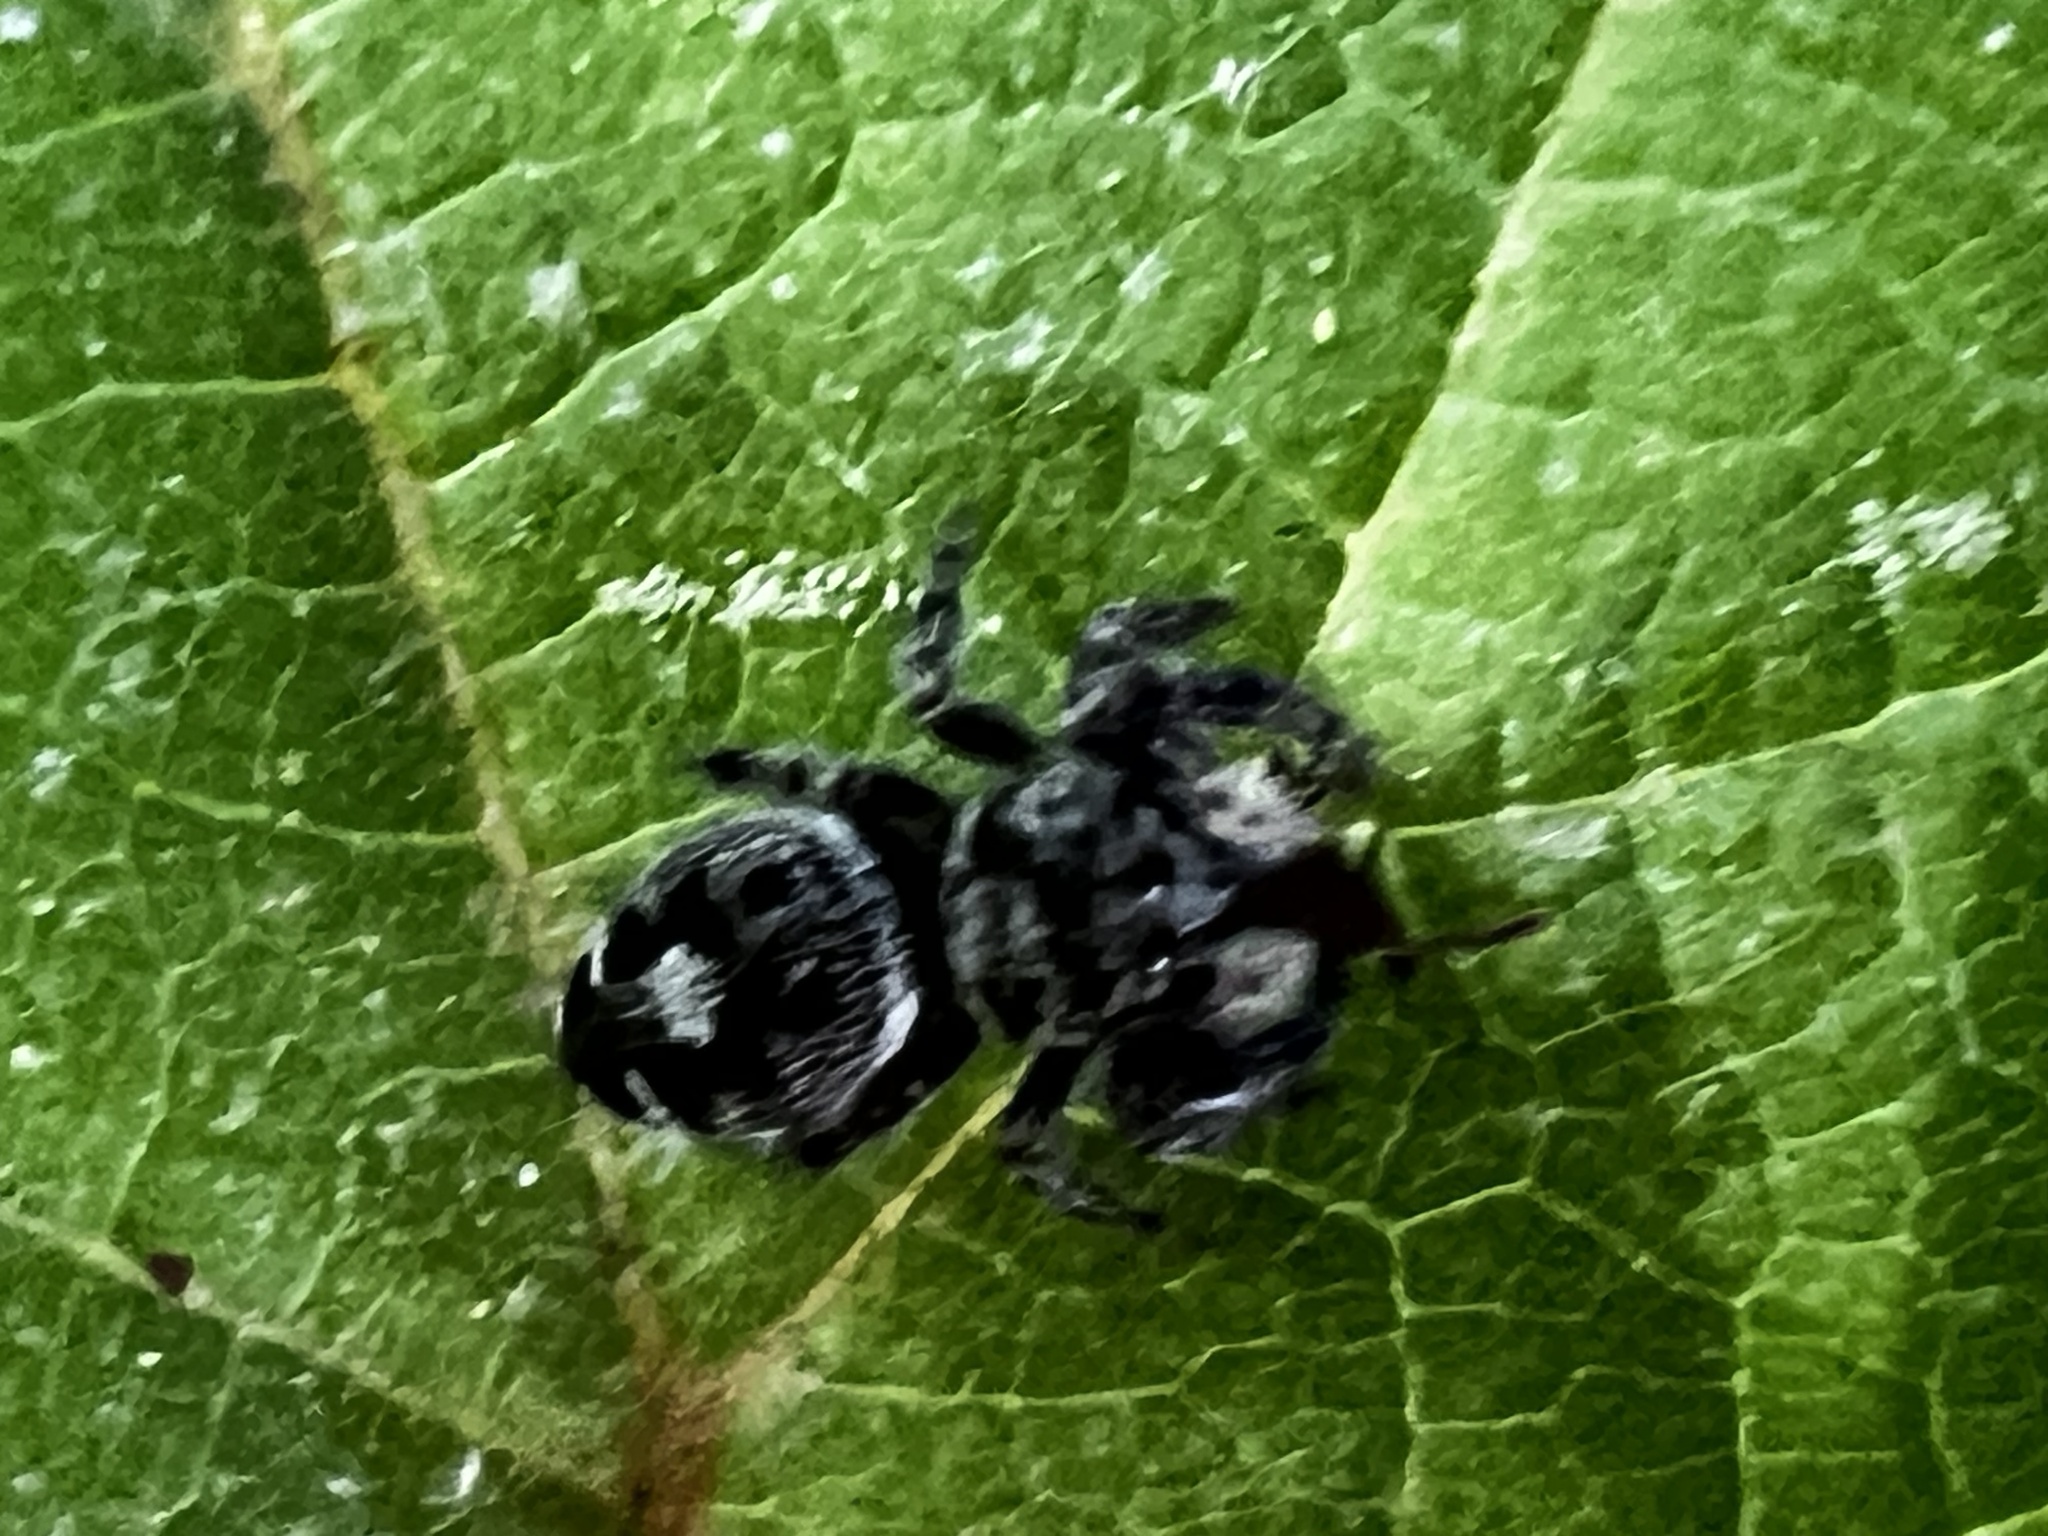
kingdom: Animalia
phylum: Arthropoda
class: Arachnida
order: Araneae
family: Salticidae
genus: Phidippus
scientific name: Phidippus audax
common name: Bold jumper
